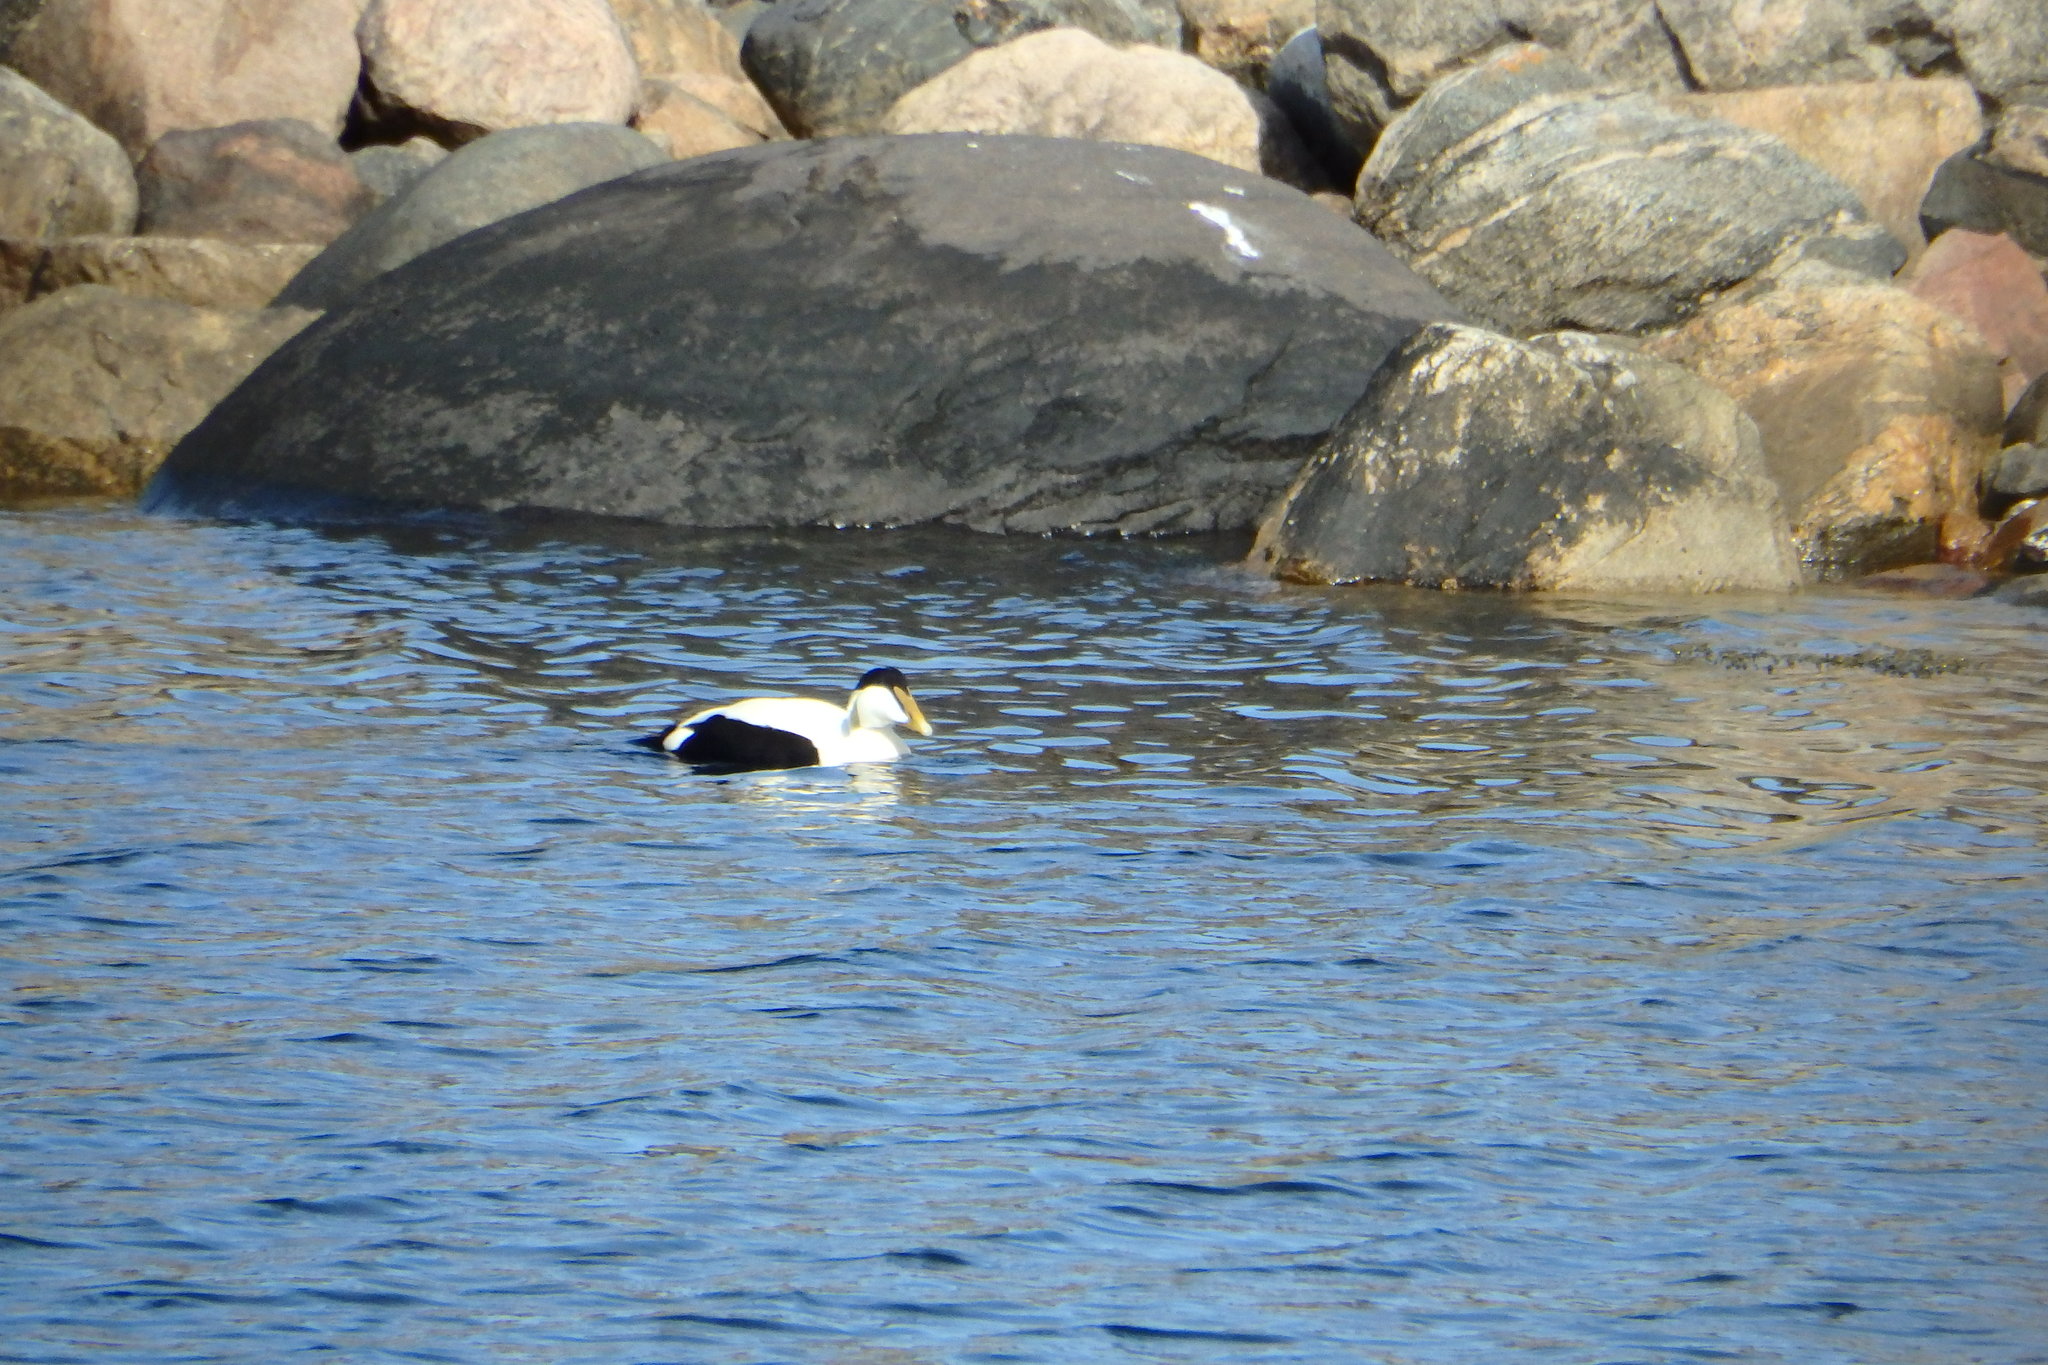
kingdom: Animalia
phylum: Chordata
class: Aves
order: Anseriformes
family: Anatidae
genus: Somateria
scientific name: Somateria mollissima
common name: Common eider
